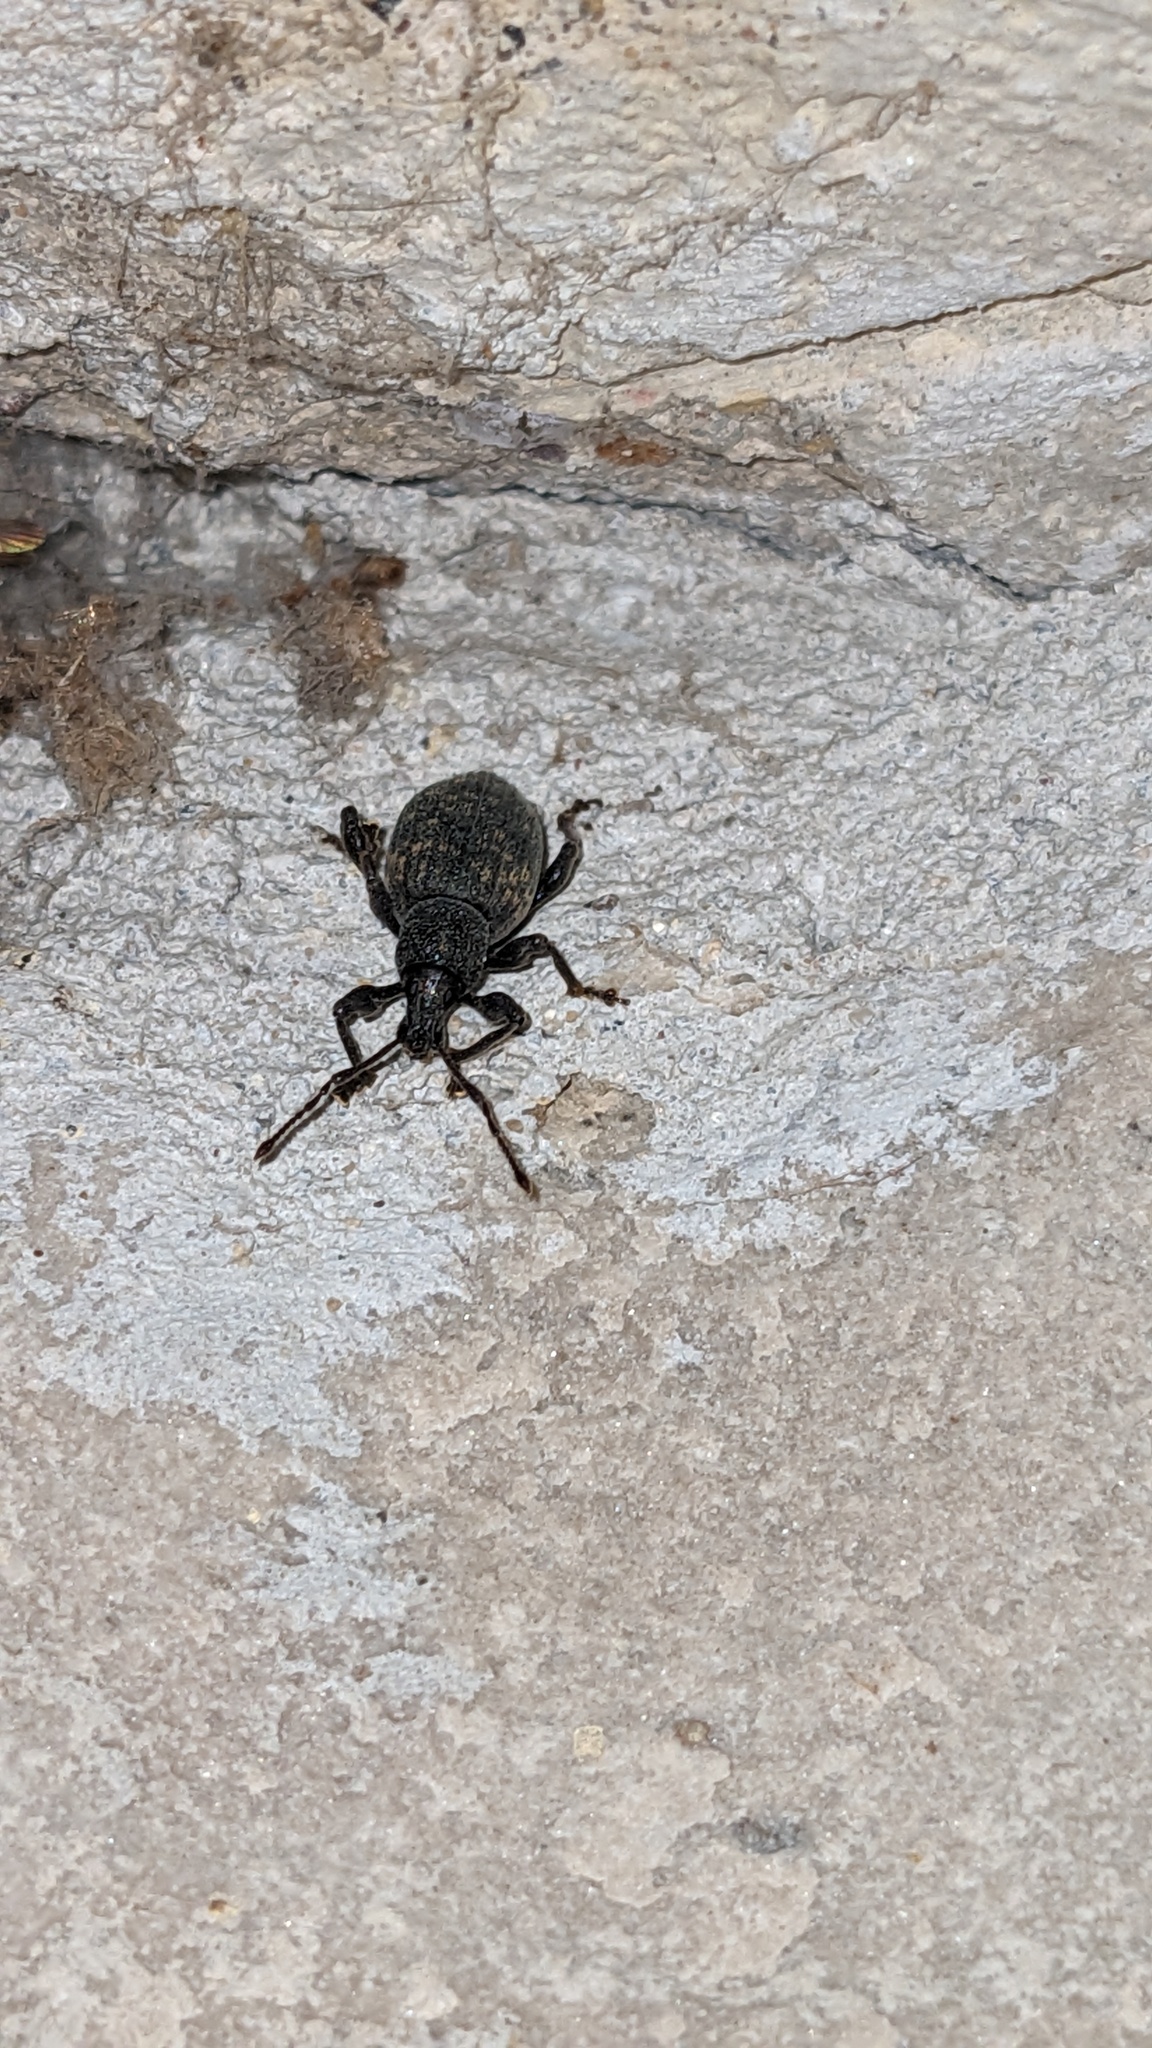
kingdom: Animalia
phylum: Arthropoda
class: Insecta
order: Coleoptera
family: Curculionidae
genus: Otiorhynchus
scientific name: Otiorhynchus sulcatus
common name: Black vine weevil
